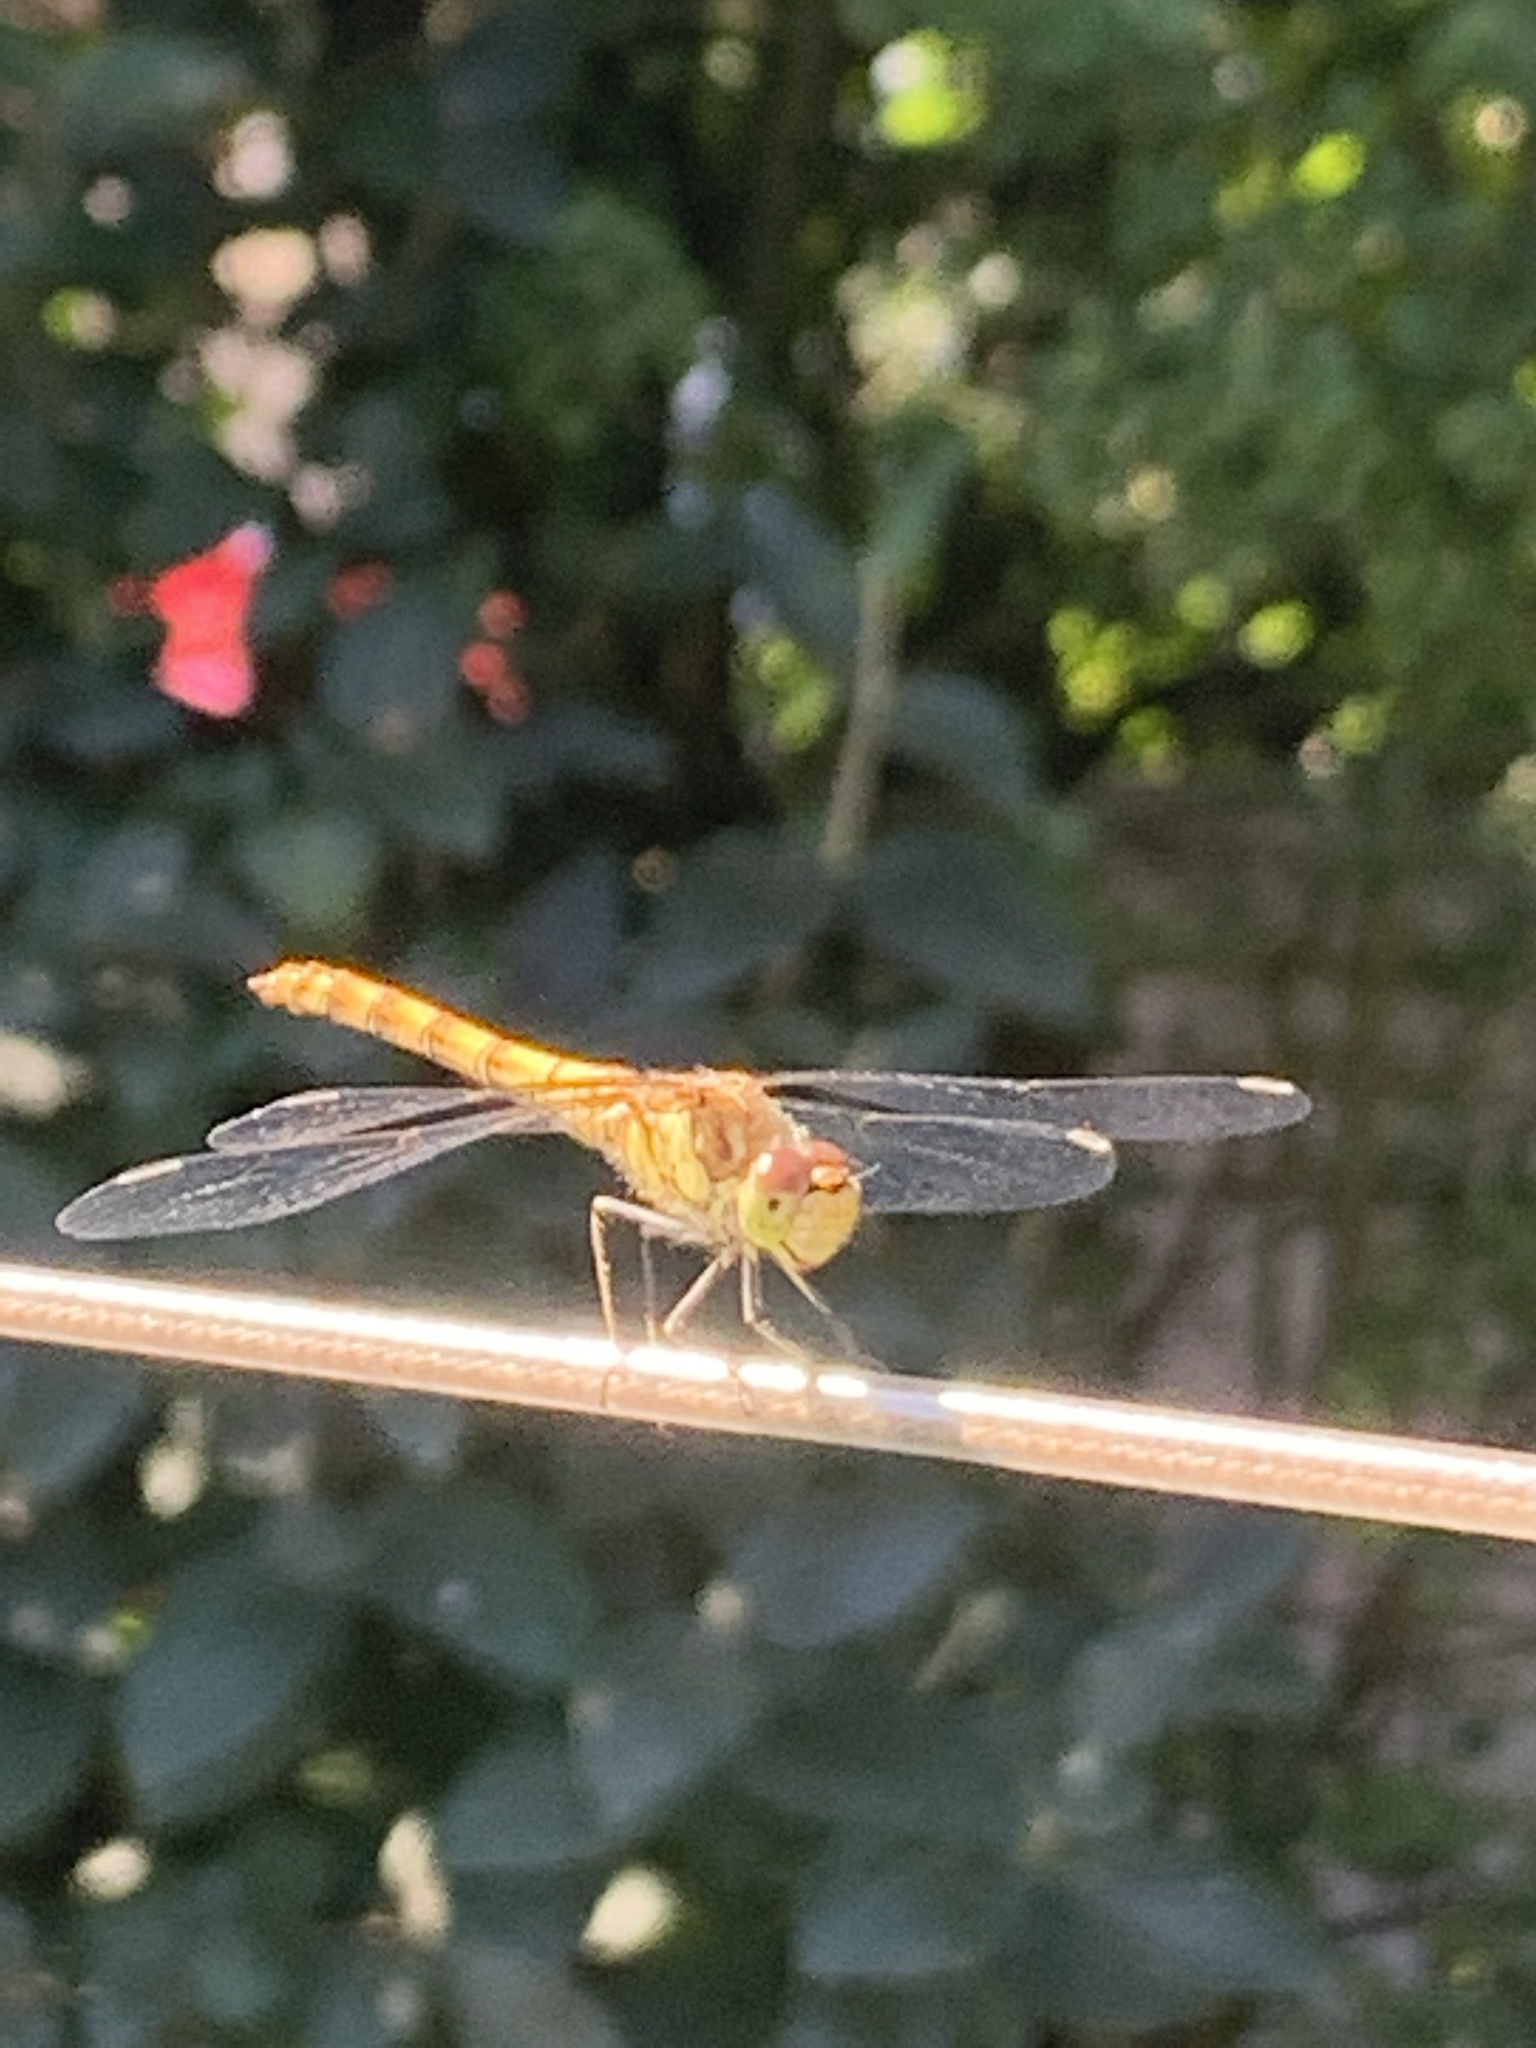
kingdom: Animalia
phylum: Arthropoda
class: Insecta
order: Odonata
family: Libellulidae
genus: Sympetrum
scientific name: Sympetrum striolatum
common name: Common darter
